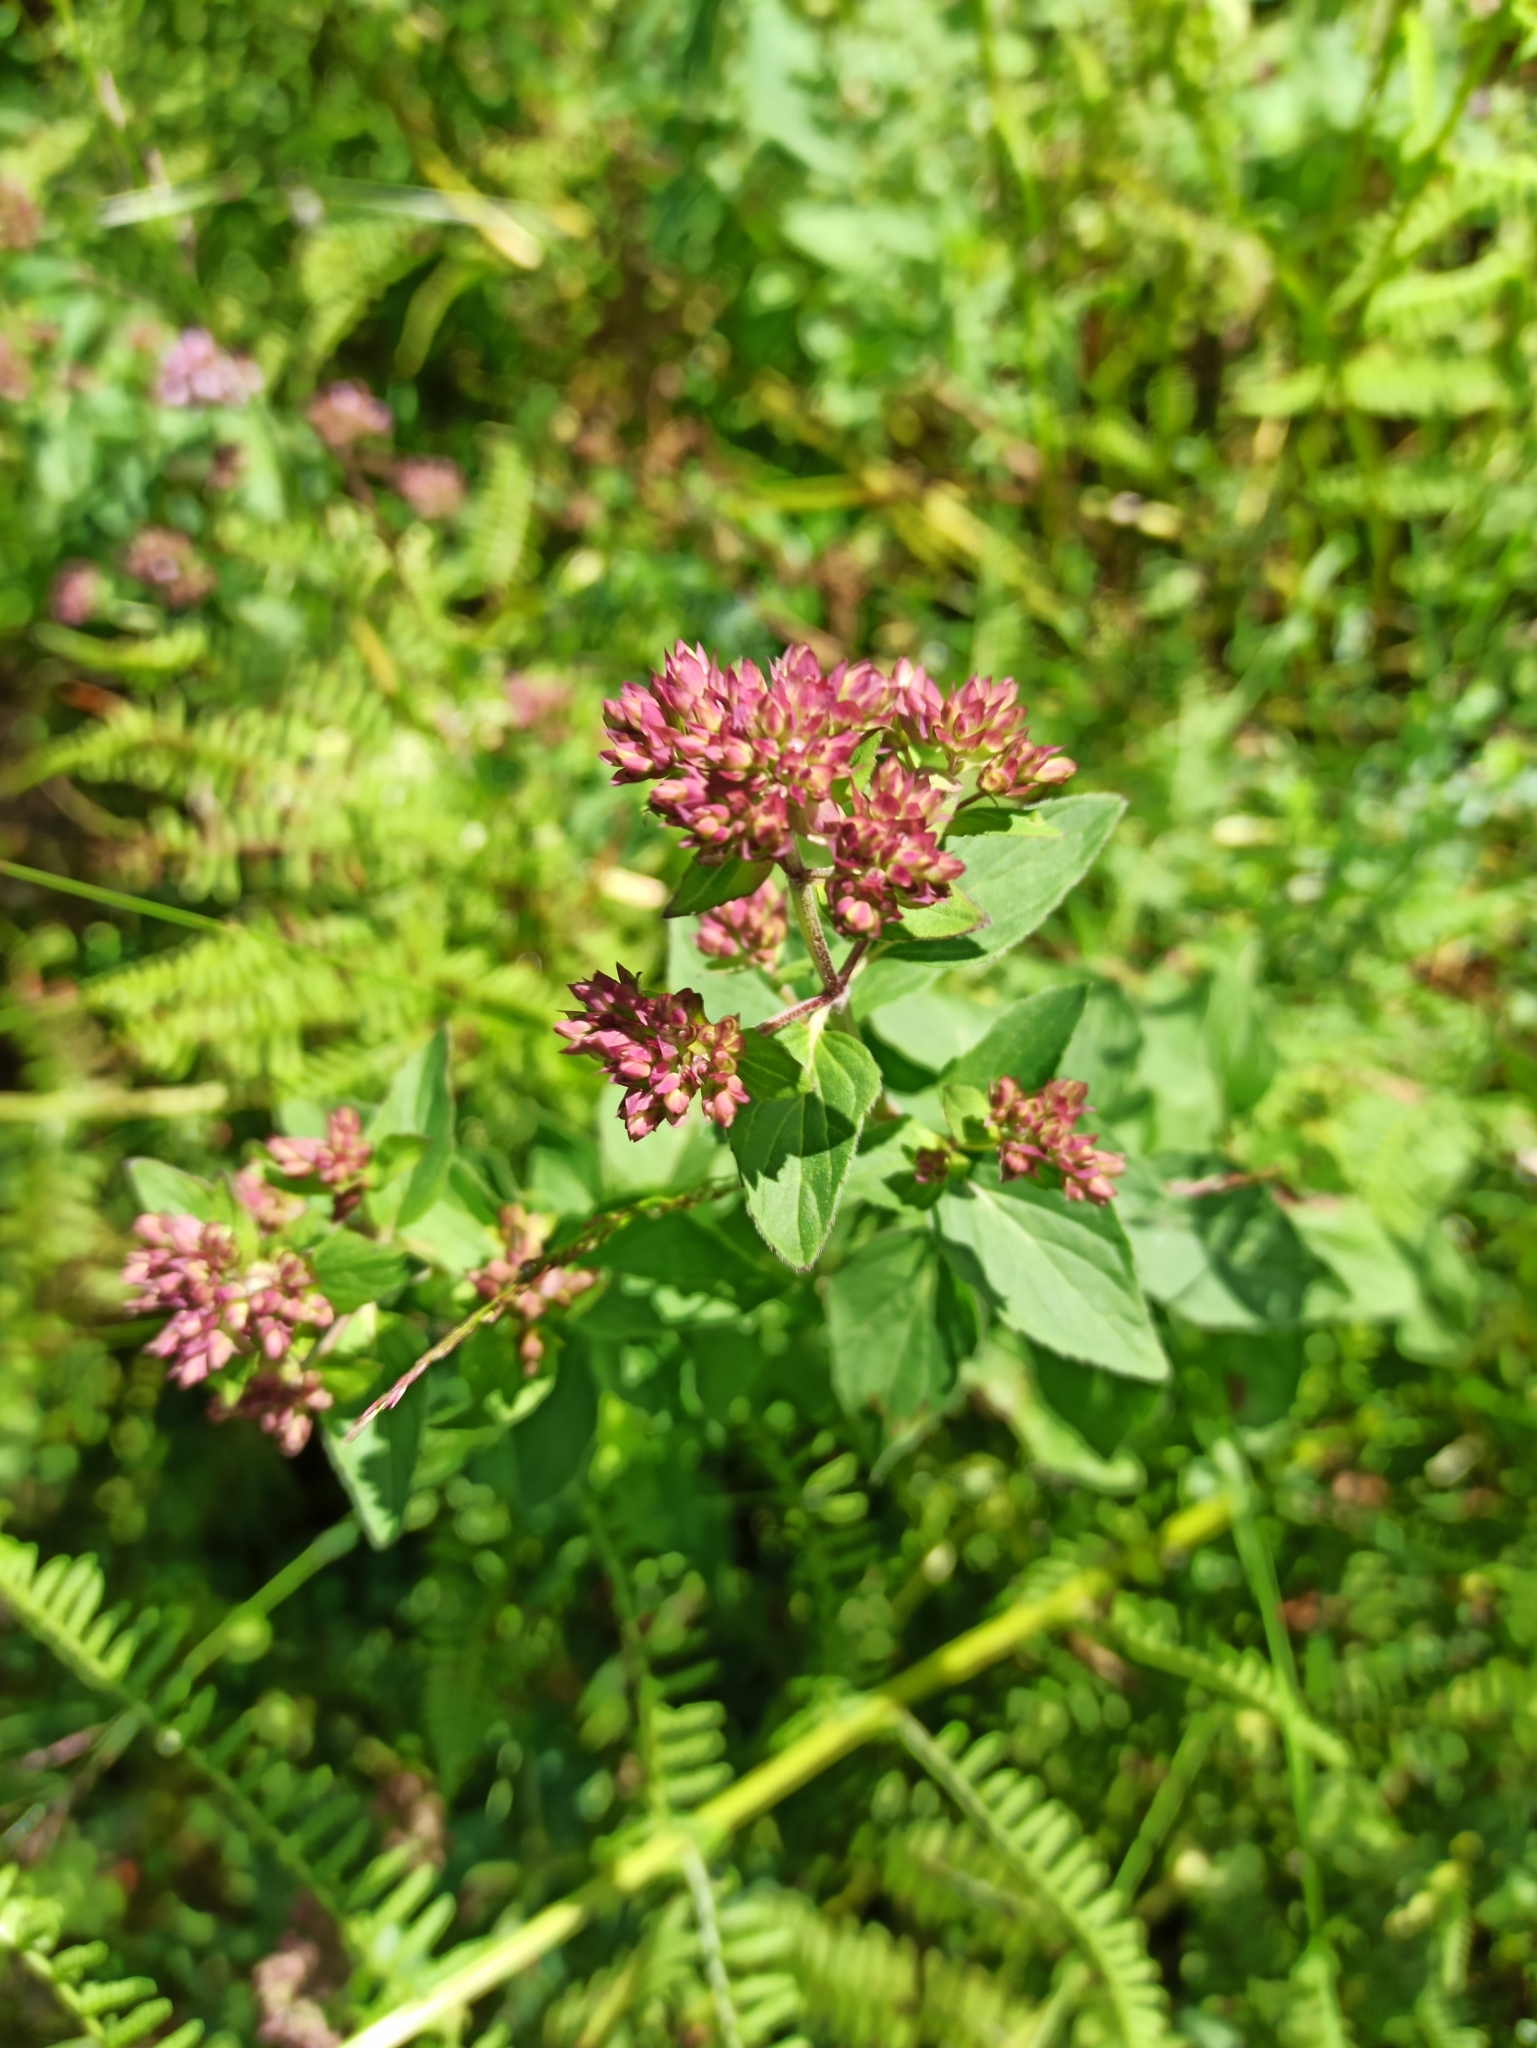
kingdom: Plantae
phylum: Tracheophyta
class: Magnoliopsida
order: Lamiales
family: Lamiaceae
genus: Origanum
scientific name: Origanum vulgare
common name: Wild marjoram
